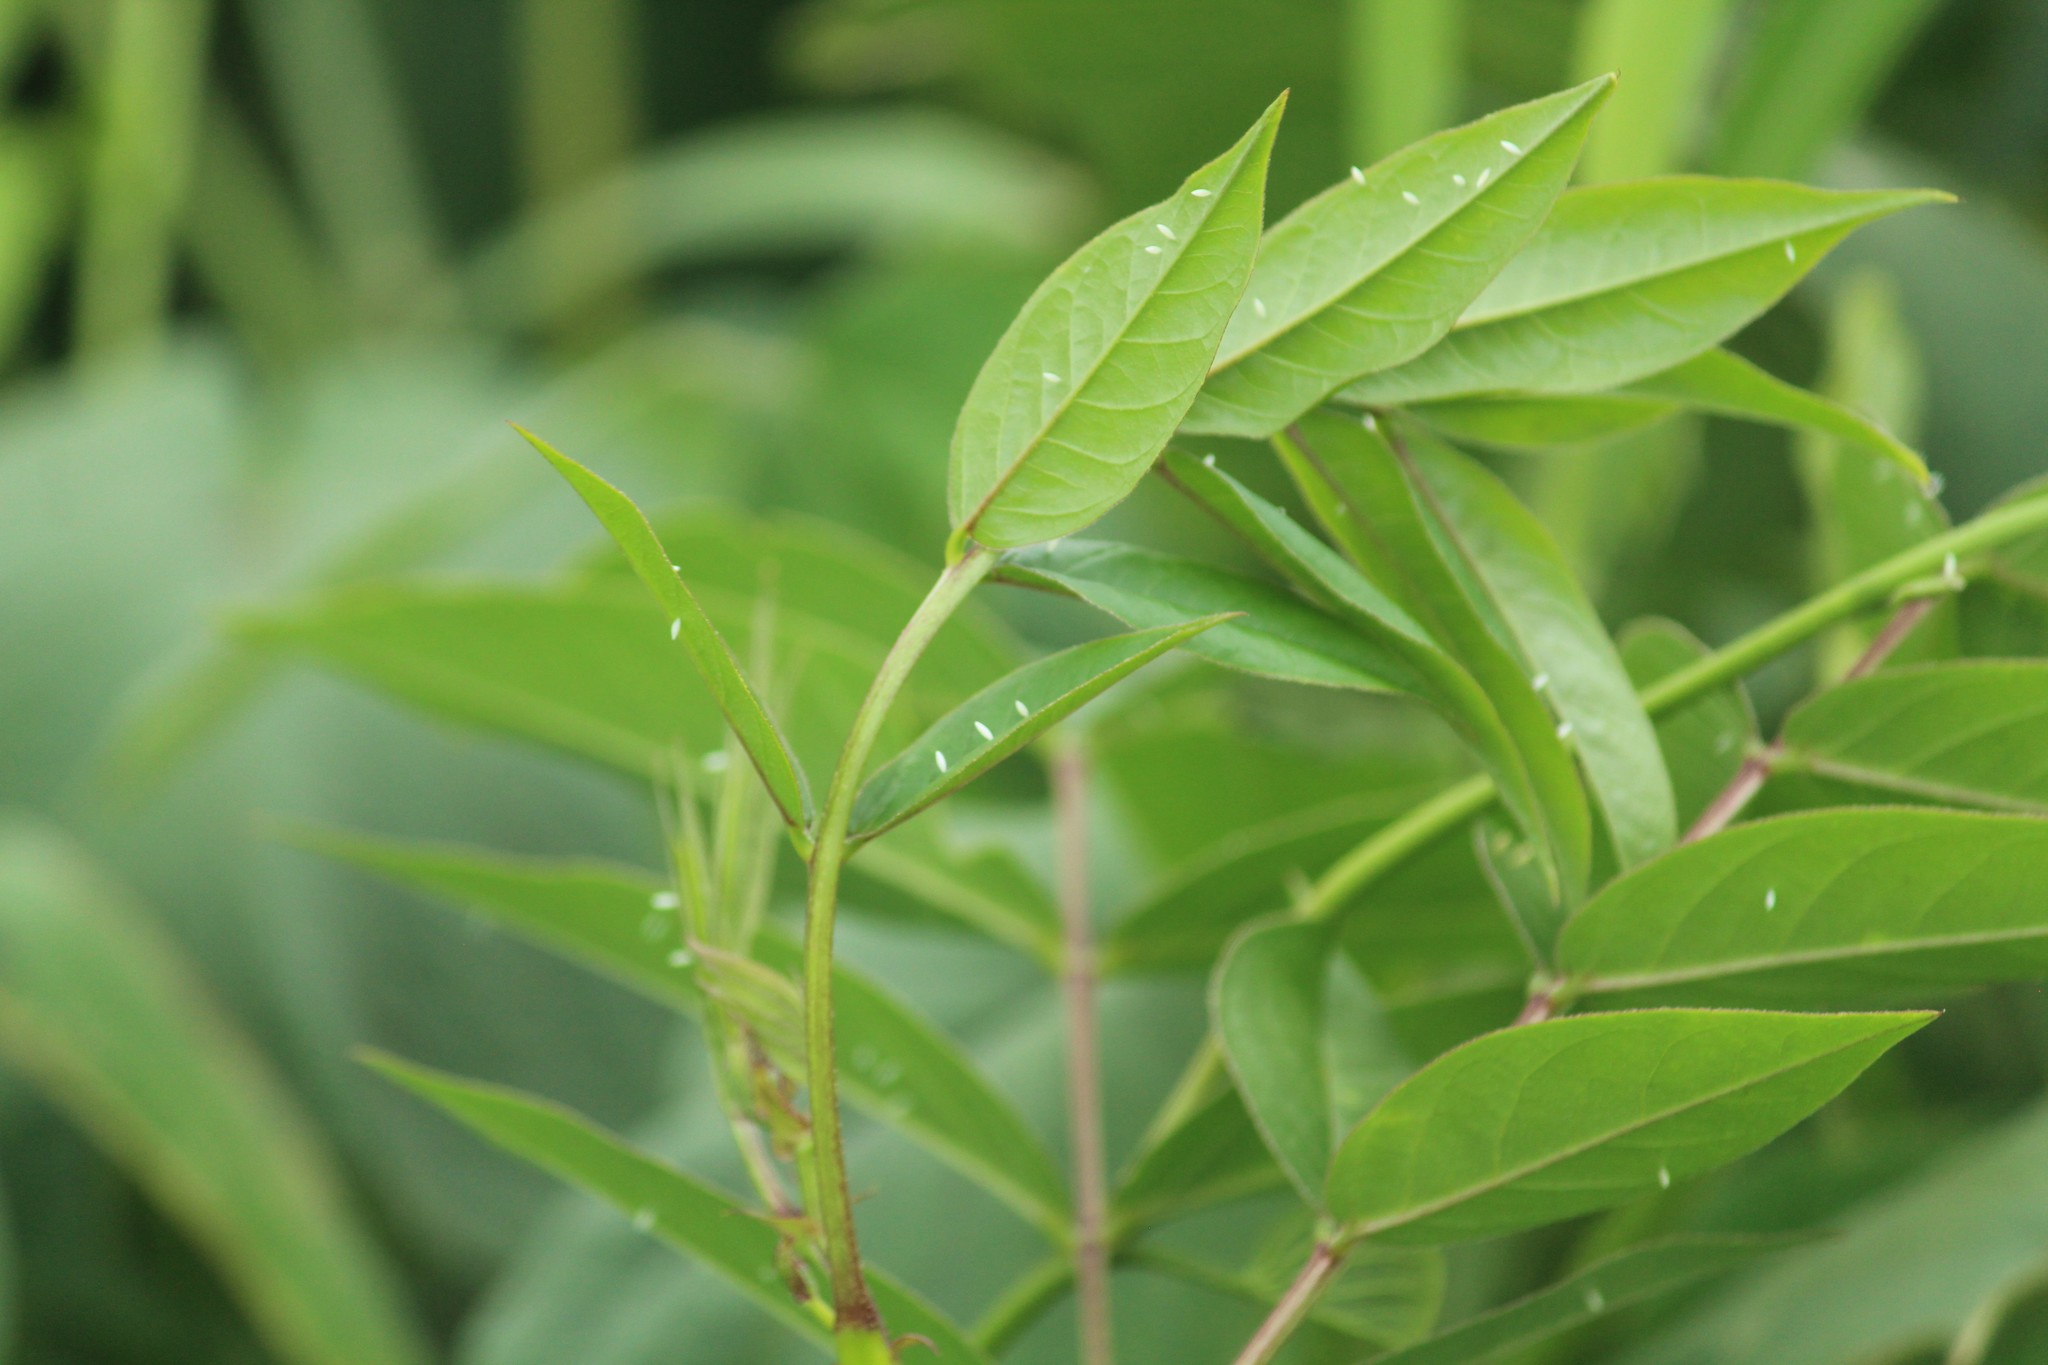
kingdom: Plantae
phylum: Tracheophyta
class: Magnoliopsida
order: Fabales
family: Fabaceae
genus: Senna
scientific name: Senna occidentalis
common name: Septicweed
